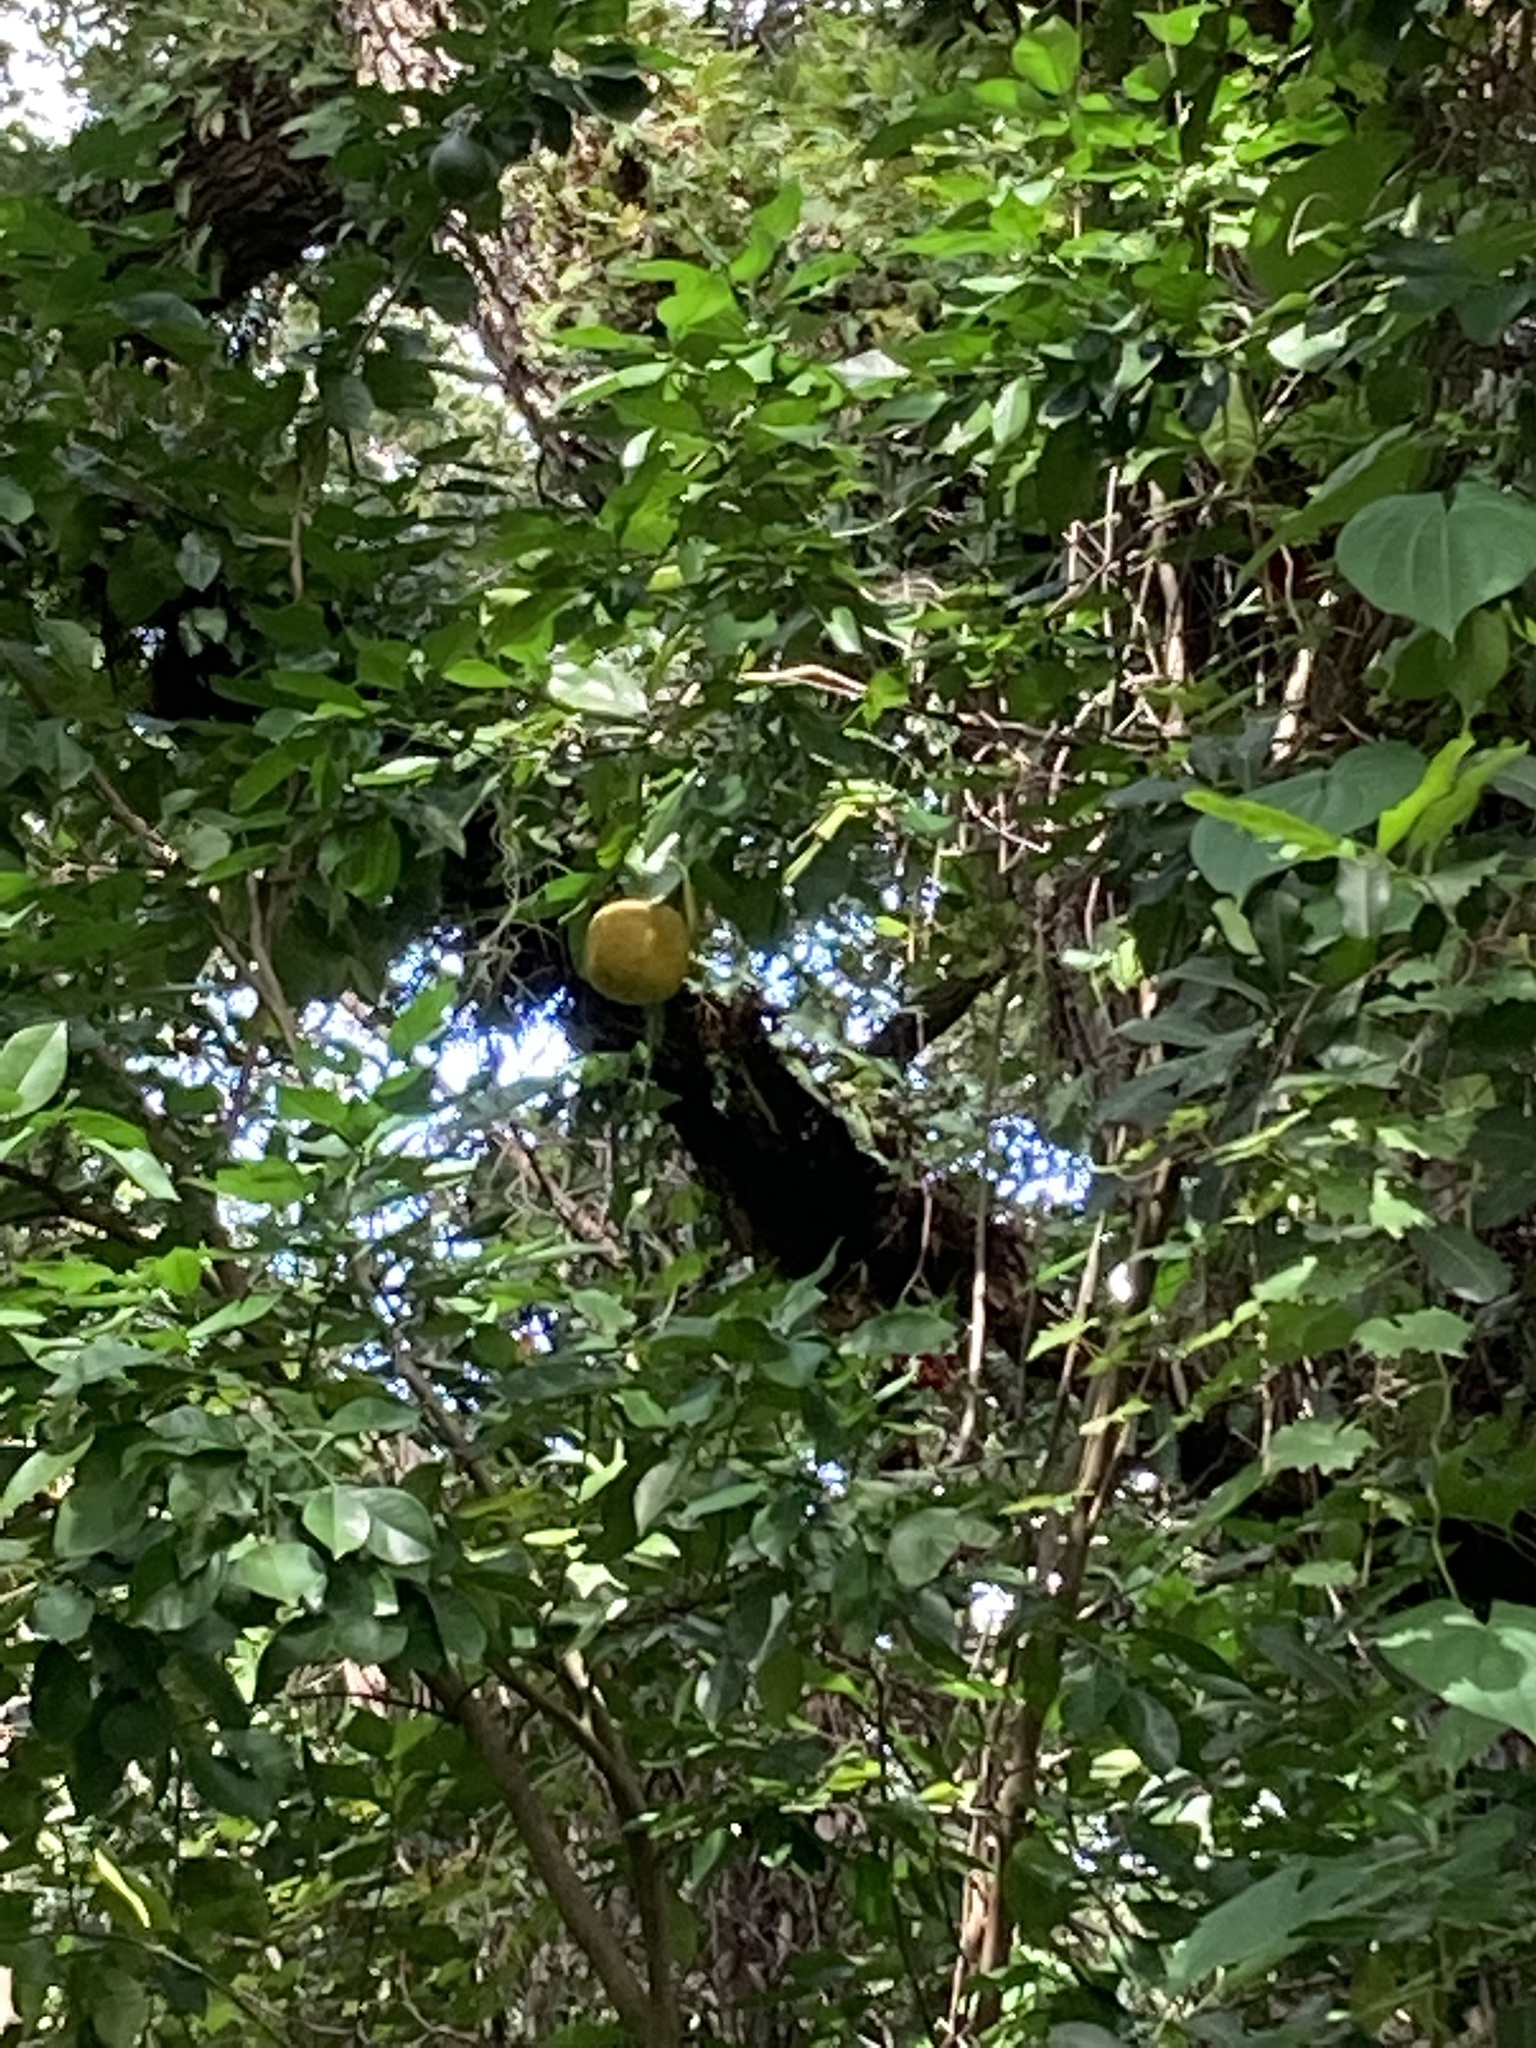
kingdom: Plantae
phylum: Tracheophyta
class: Magnoliopsida
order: Sapindales
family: Rutaceae
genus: Citrus
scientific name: Citrus aurantium
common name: Sour orange
